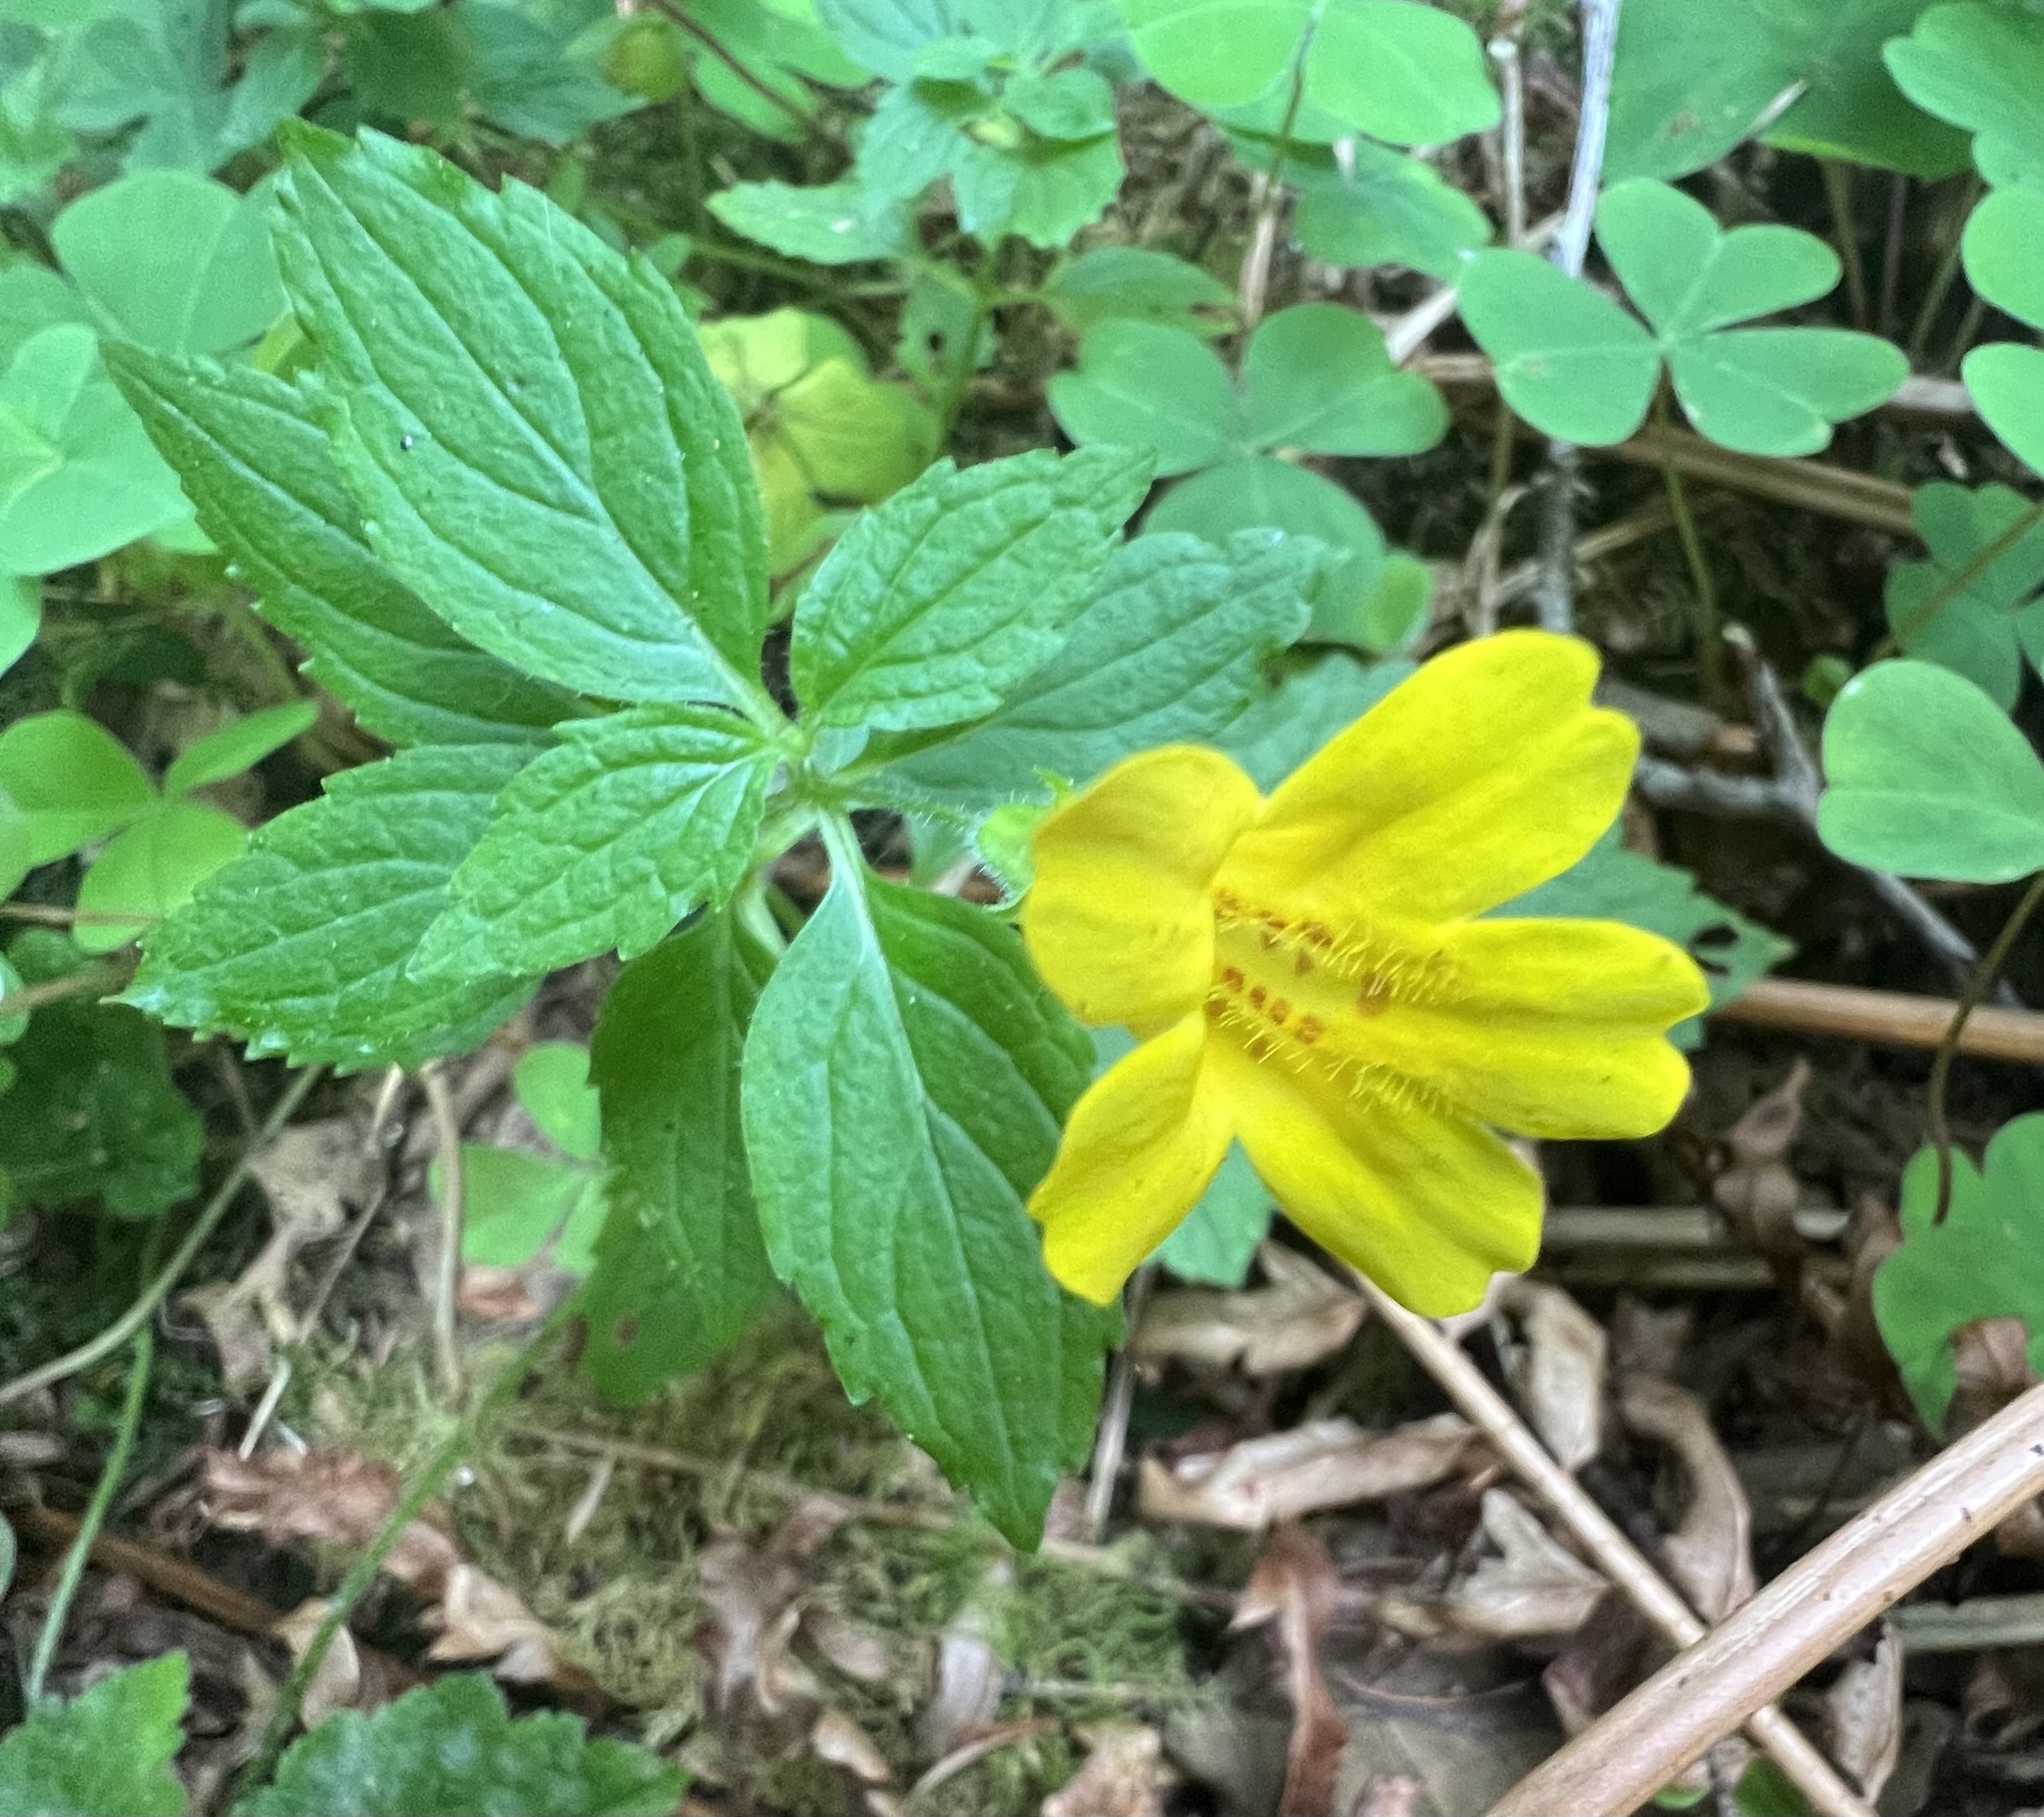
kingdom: Plantae
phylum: Tracheophyta
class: Magnoliopsida
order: Lamiales
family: Phrymaceae
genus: Erythranthe
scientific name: Erythranthe dentata
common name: Coastal monkeyflower
